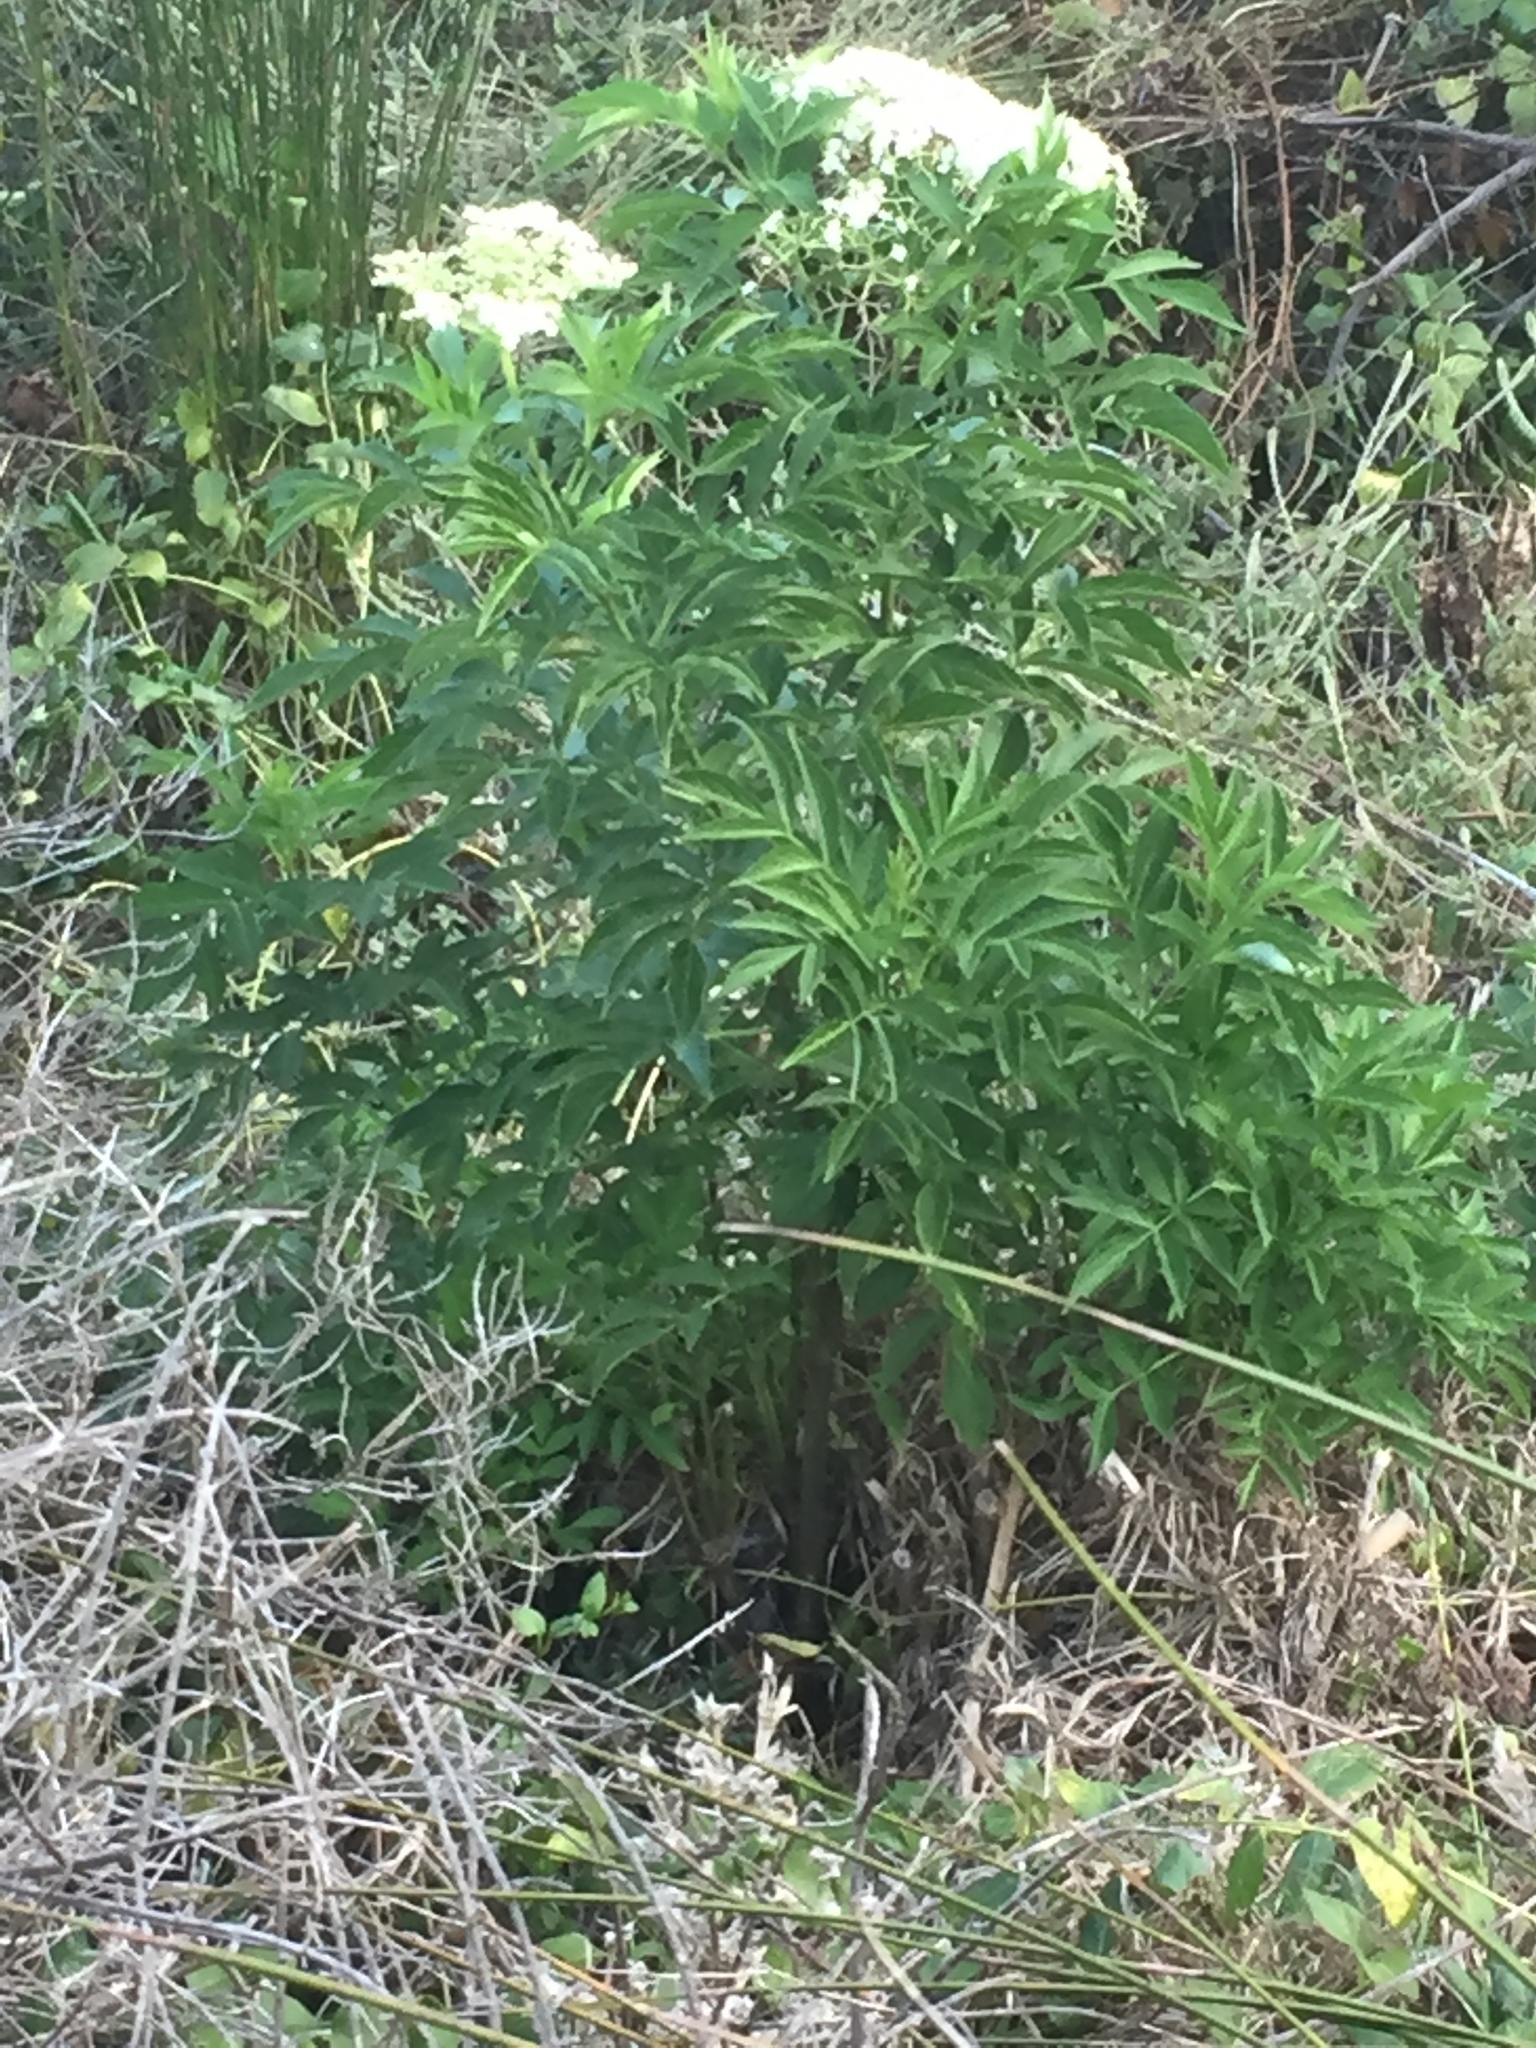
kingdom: Plantae
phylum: Tracheophyta
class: Magnoliopsida
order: Dipsacales
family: Viburnaceae
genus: Sambucus
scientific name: Sambucus nigra
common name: Elder
